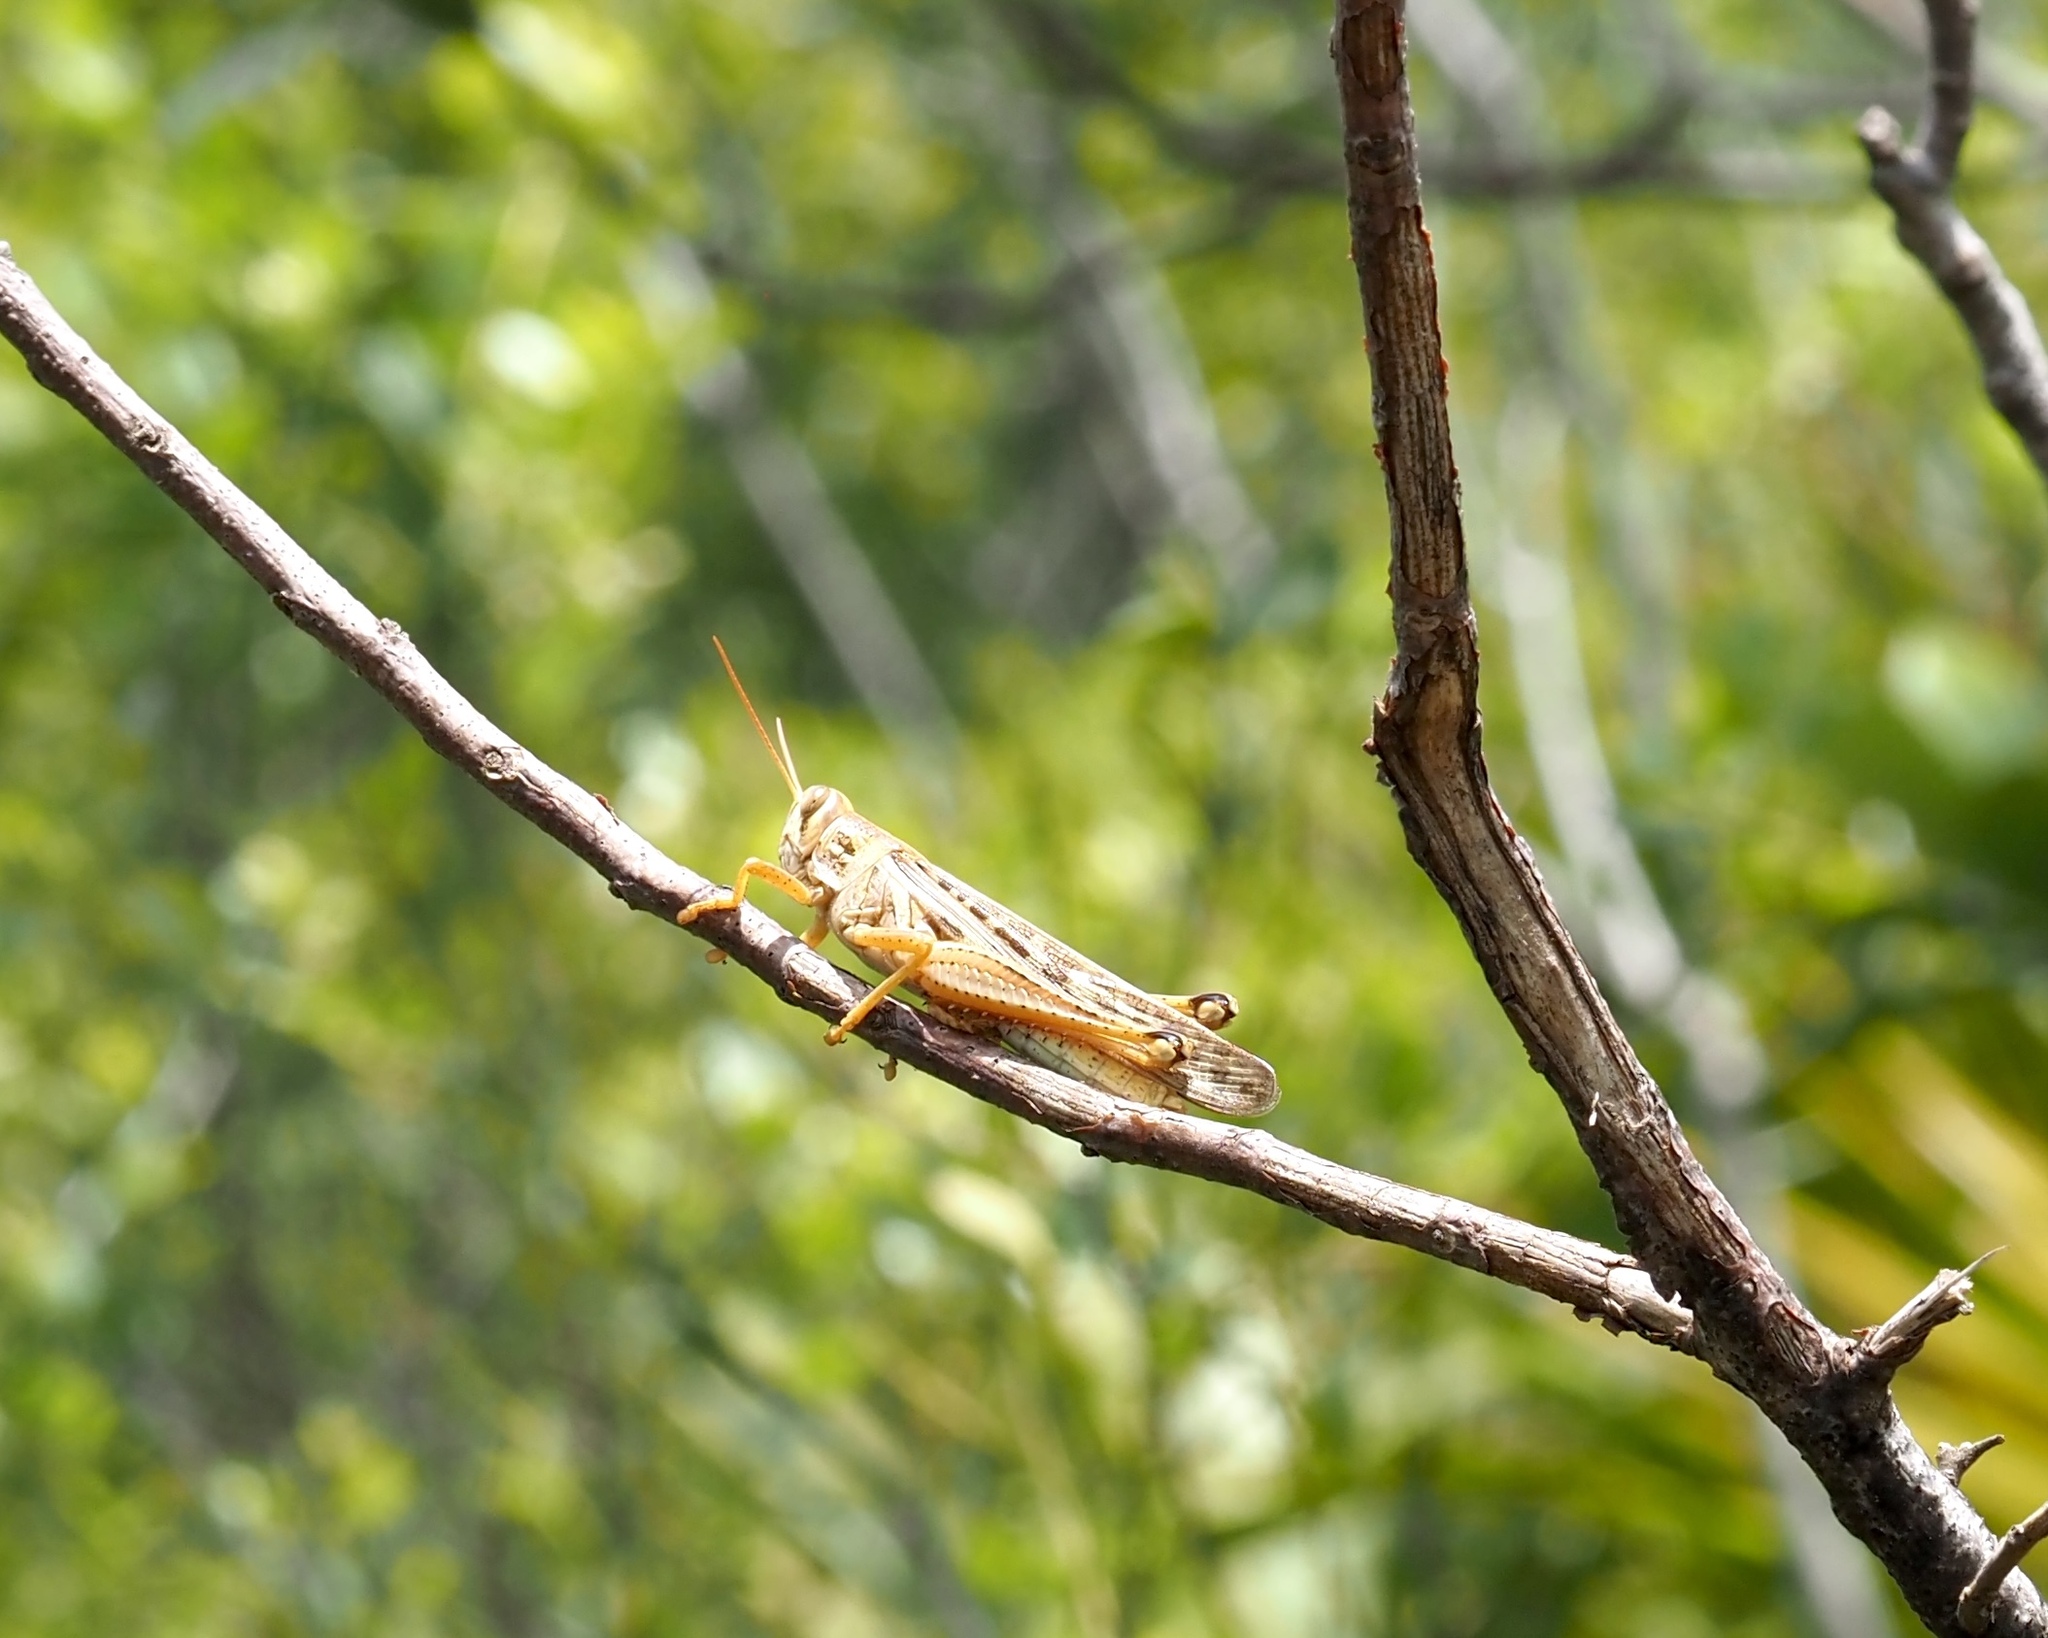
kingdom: Animalia
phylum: Arthropoda
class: Insecta
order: Orthoptera
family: Acrididae
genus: Schistocerca
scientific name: Schistocerca serialis
